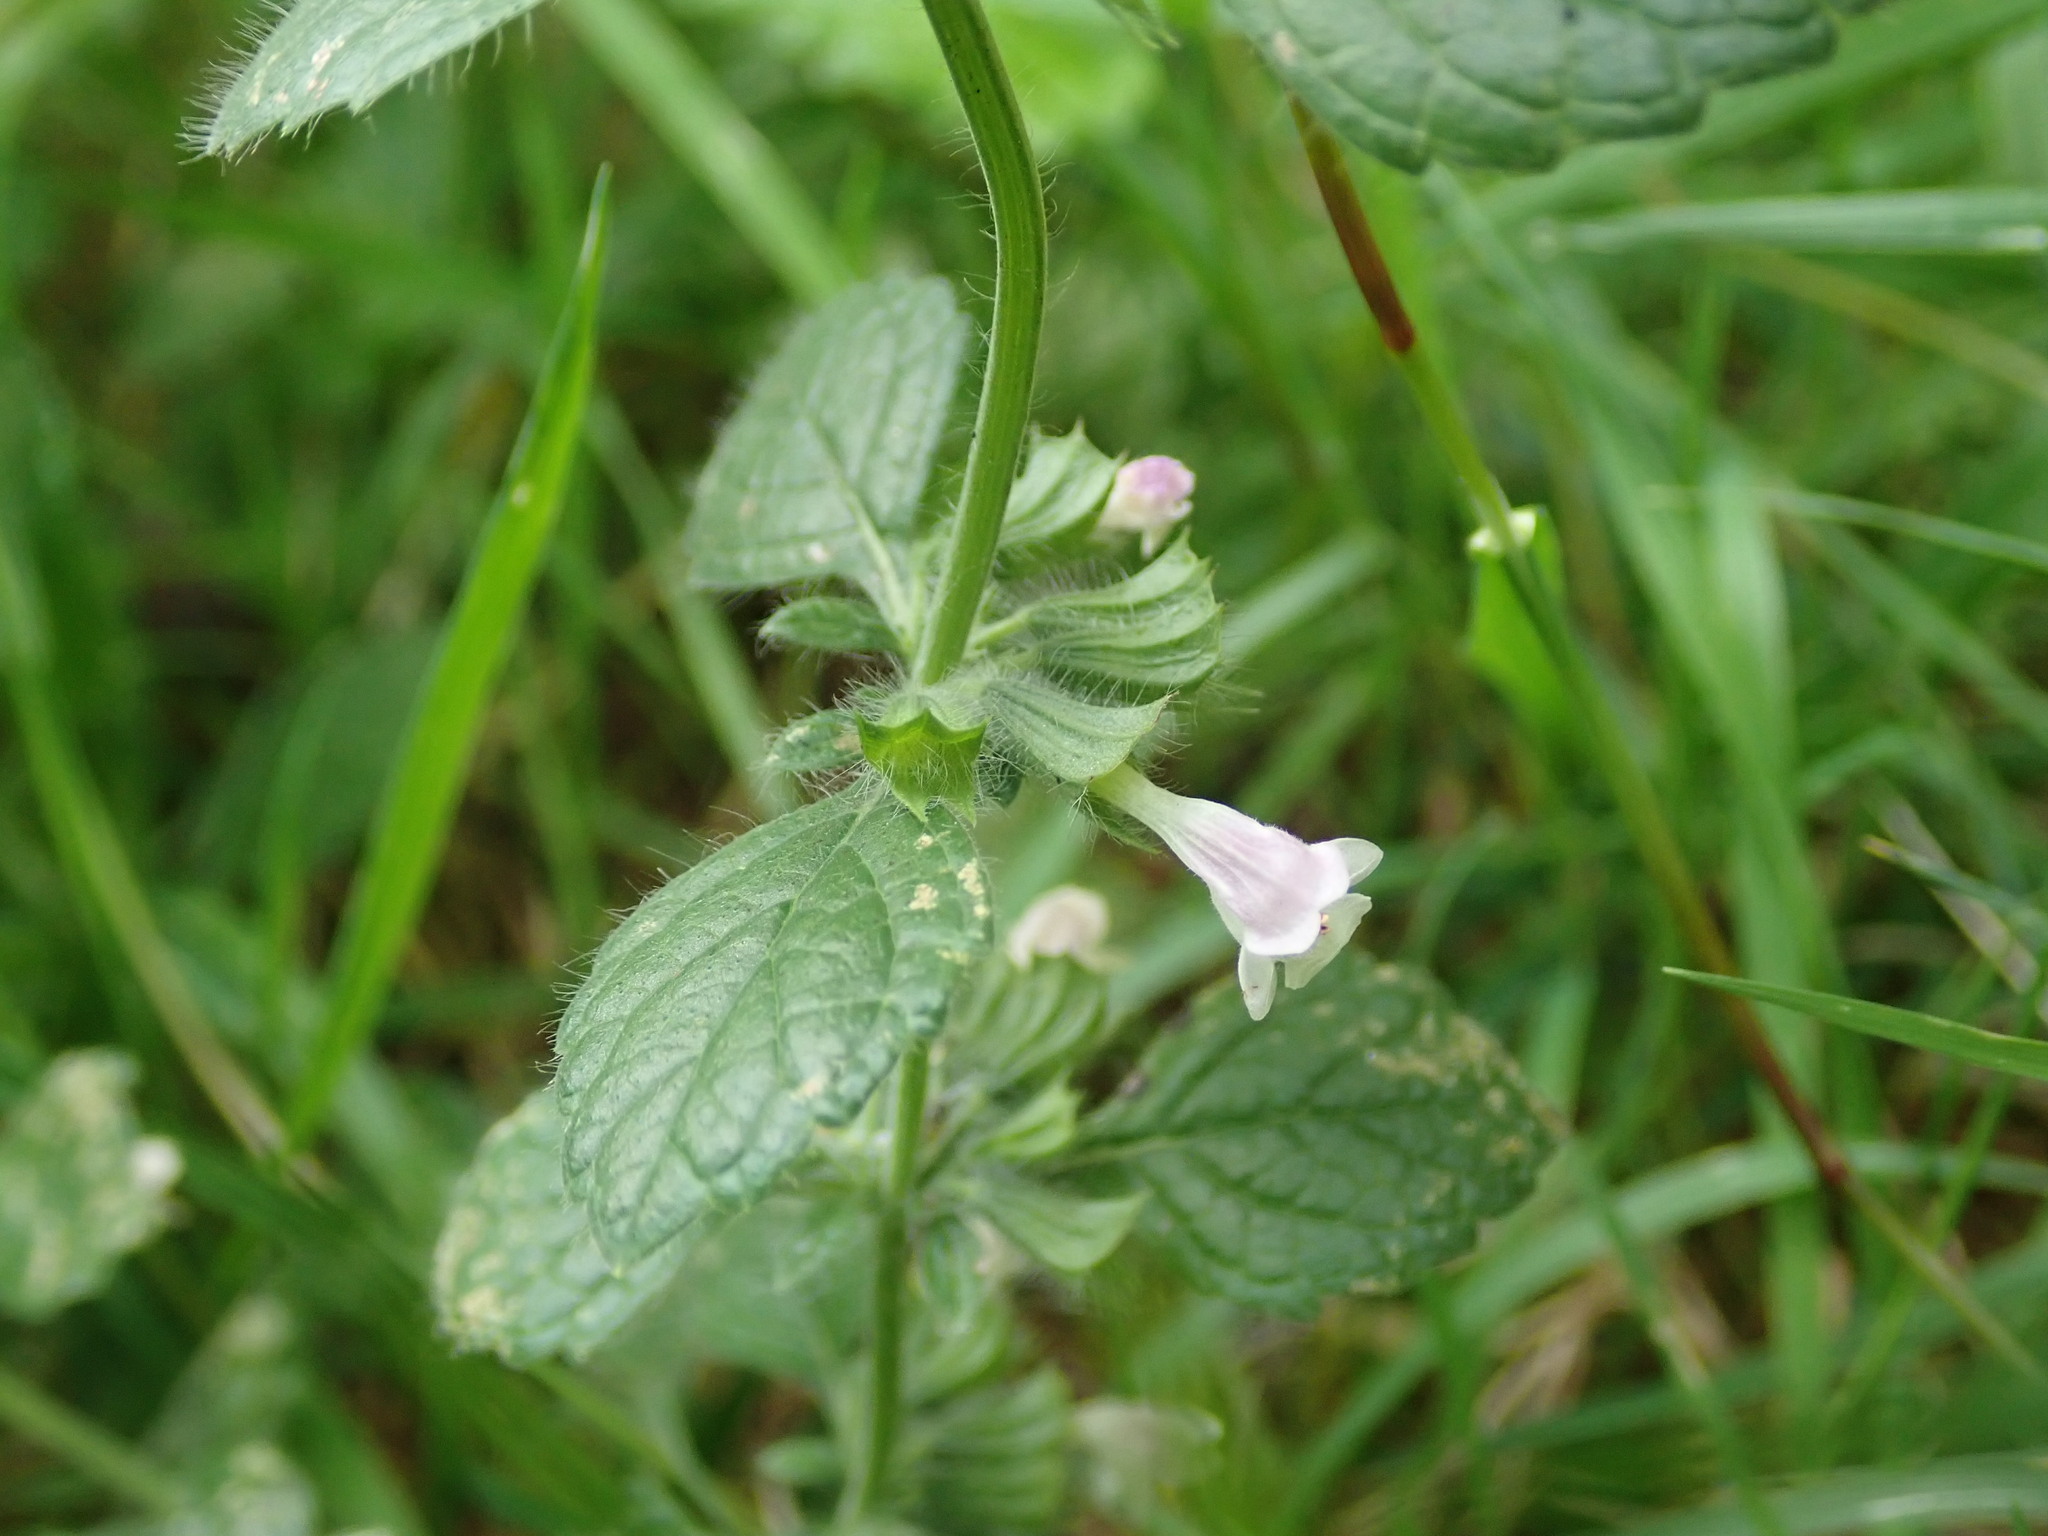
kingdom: Plantae
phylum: Tracheophyta
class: Magnoliopsida
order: Lamiales
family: Lamiaceae
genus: Melissa
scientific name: Melissa officinalis
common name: Balm
